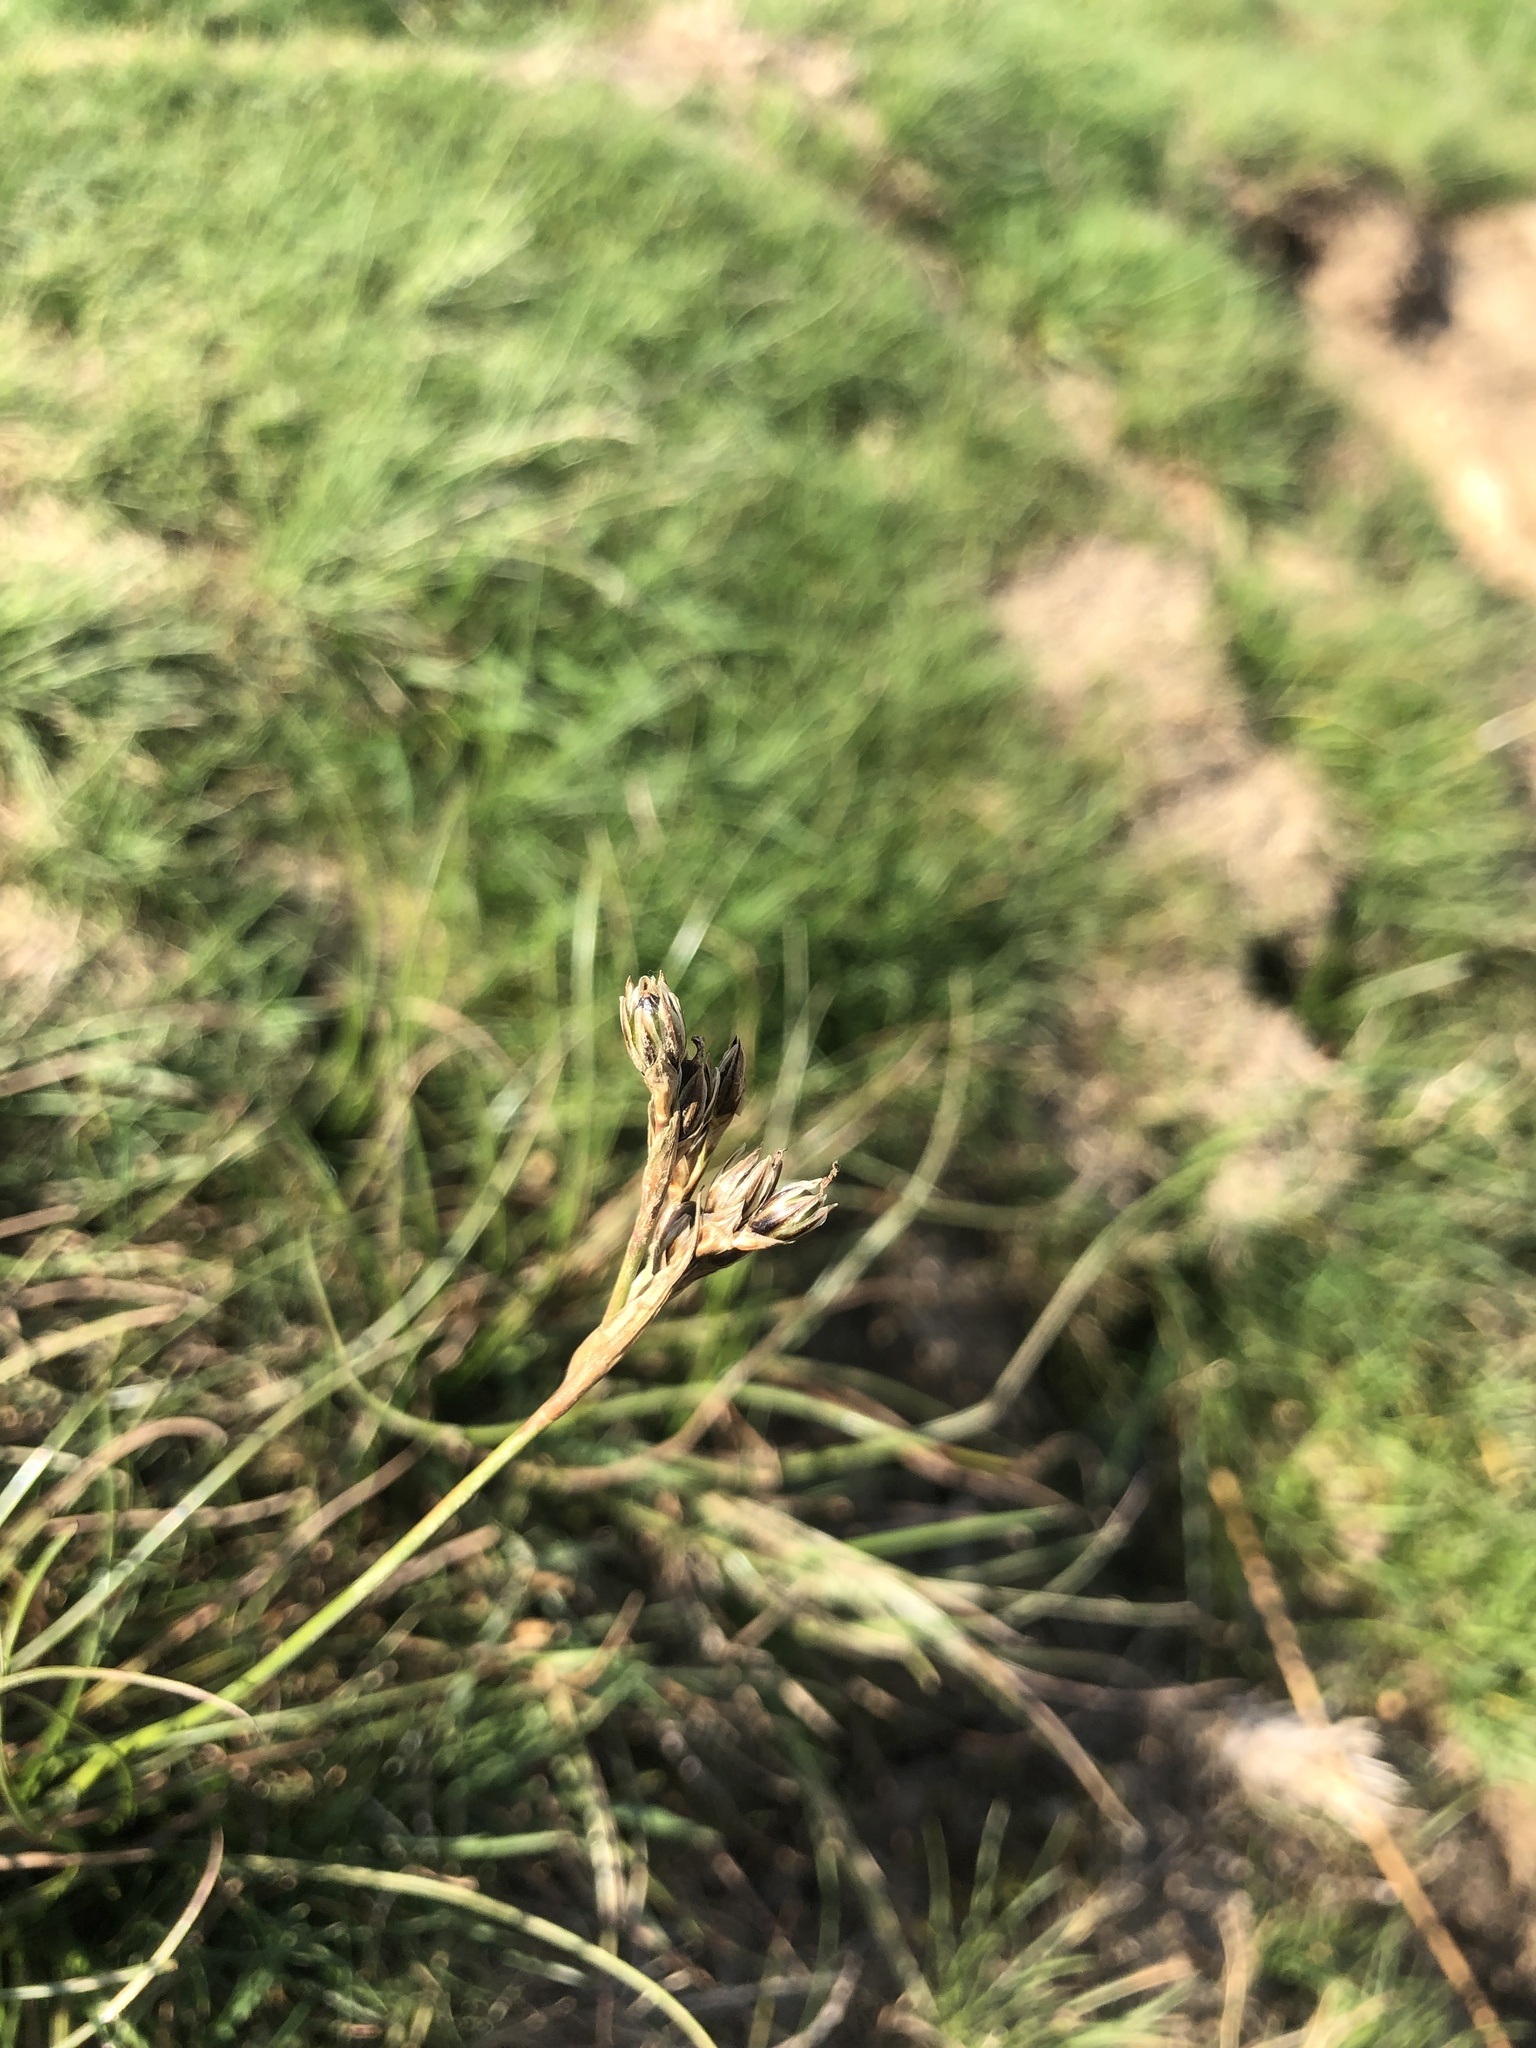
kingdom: Plantae
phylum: Tracheophyta
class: Liliopsida
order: Poales
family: Juncaceae
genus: Juncus
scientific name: Juncus squarrosus
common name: Heath rush
